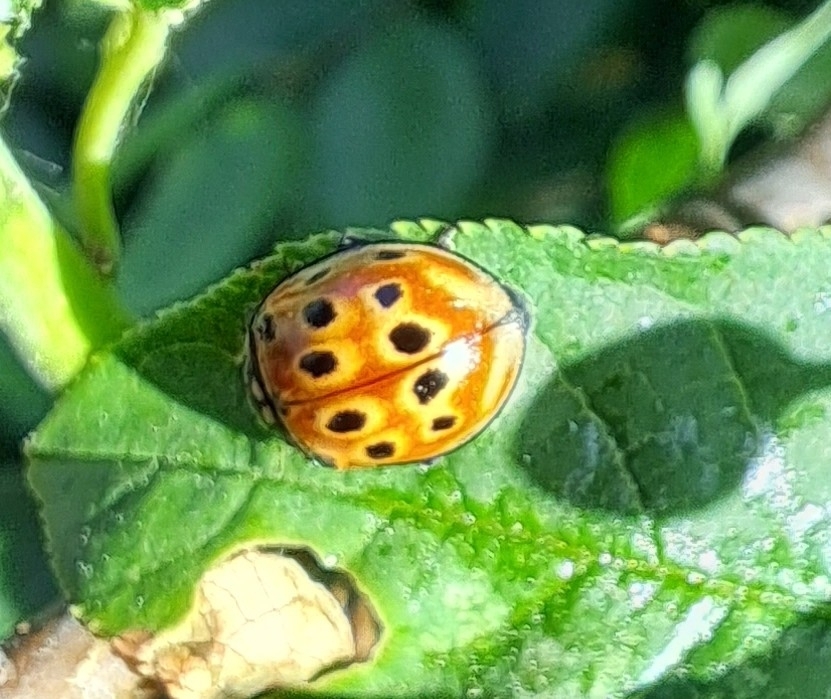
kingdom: Animalia
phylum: Arthropoda
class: Insecta
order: Coleoptera
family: Coccinellidae
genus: Anatis
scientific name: Anatis ocellata
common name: Eyed ladybird
